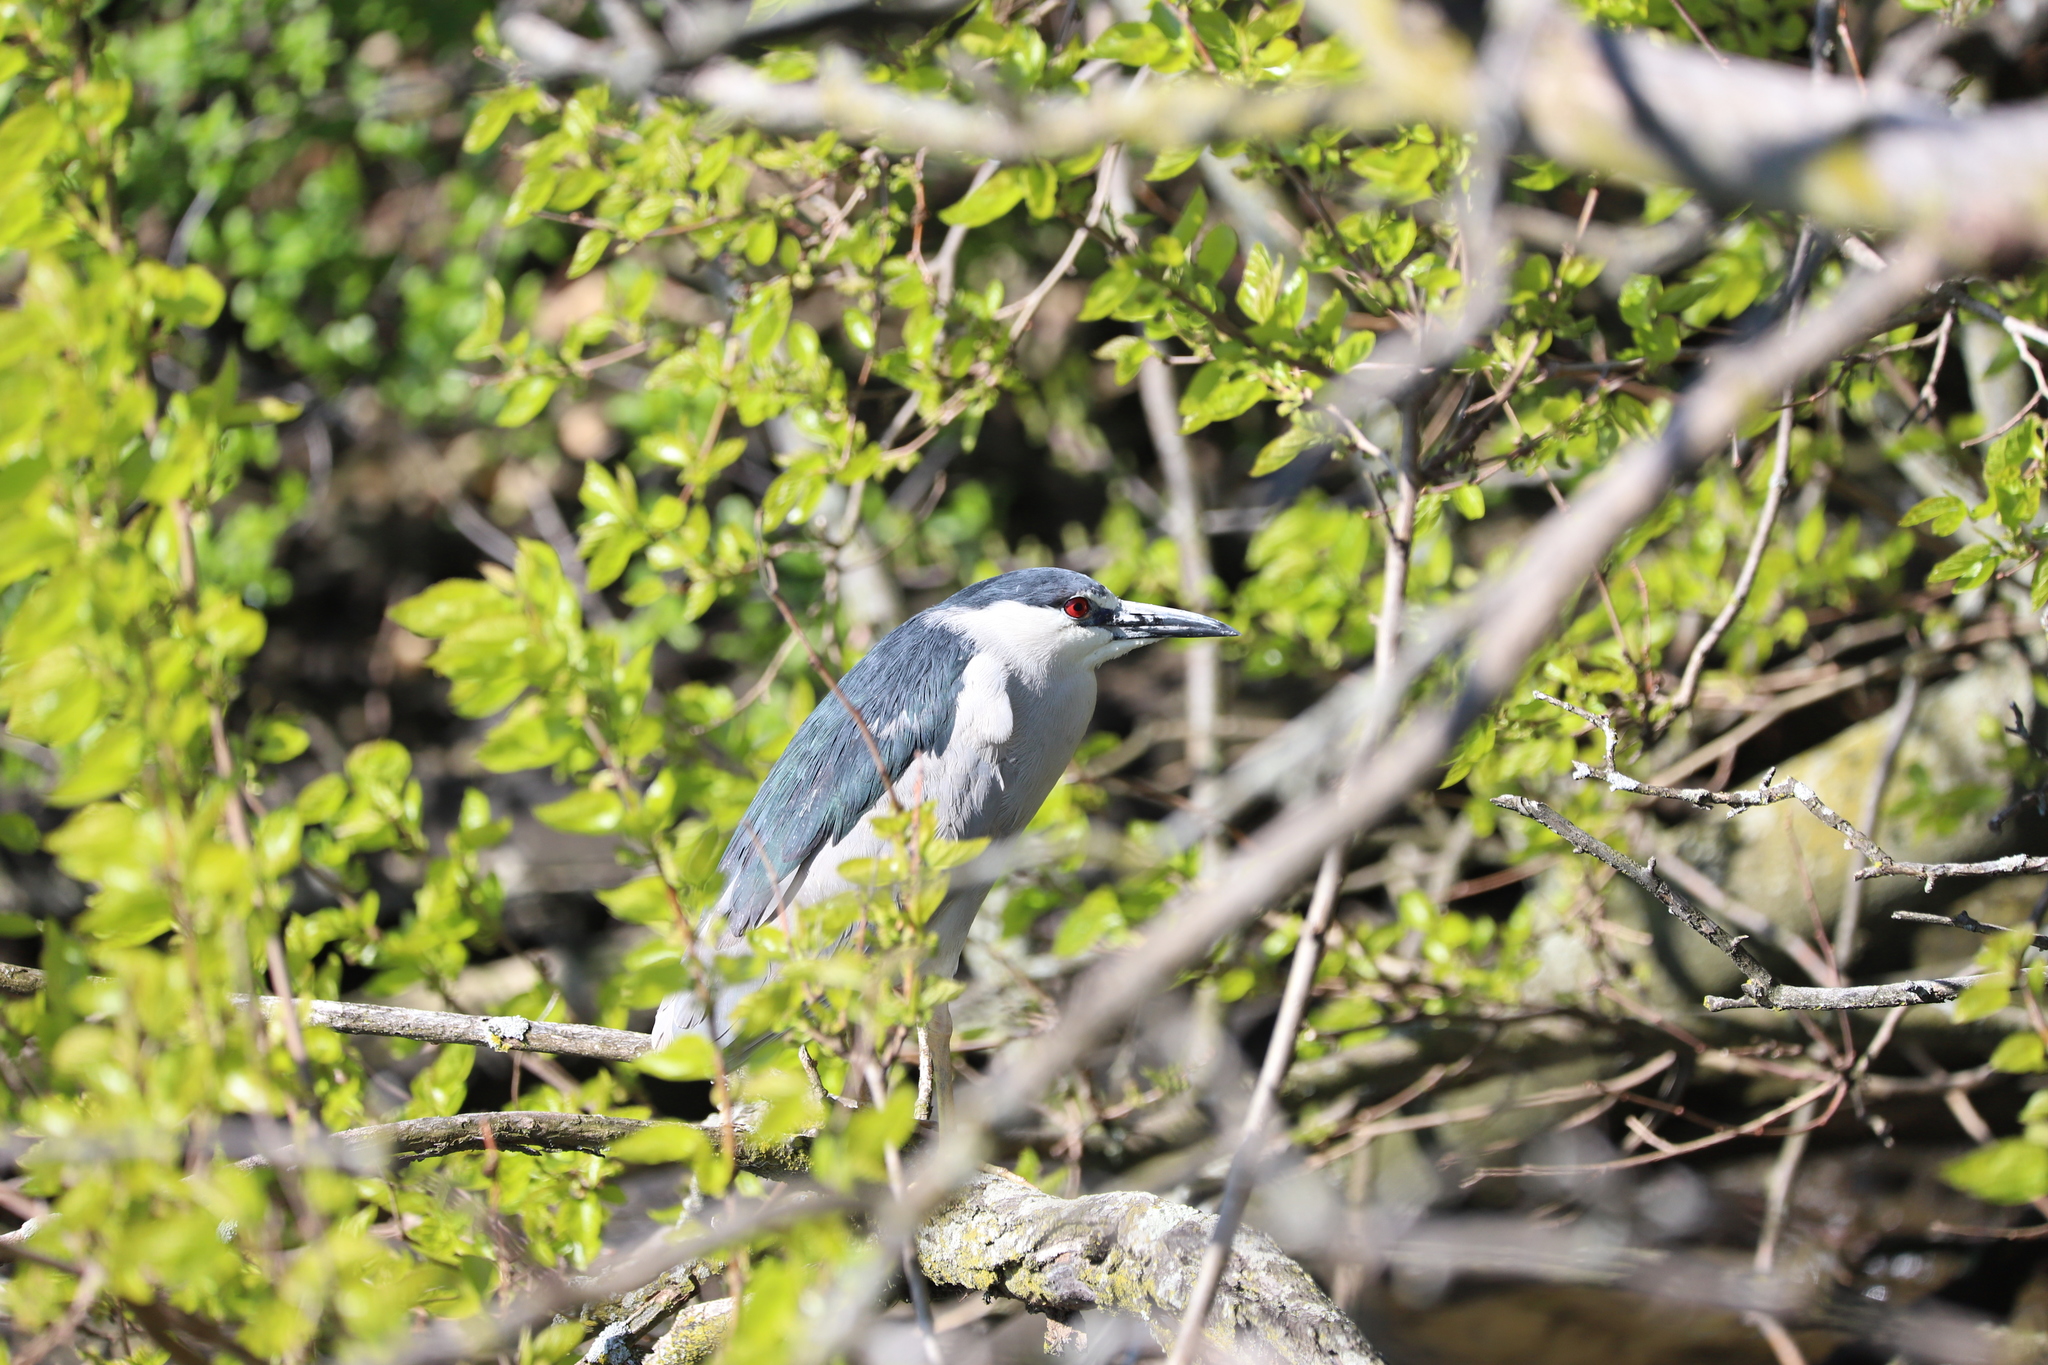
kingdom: Animalia
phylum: Chordata
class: Aves
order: Pelecaniformes
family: Ardeidae
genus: Nycticorax
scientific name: Nycticorax nycticorax
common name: Black-crowned night heron
